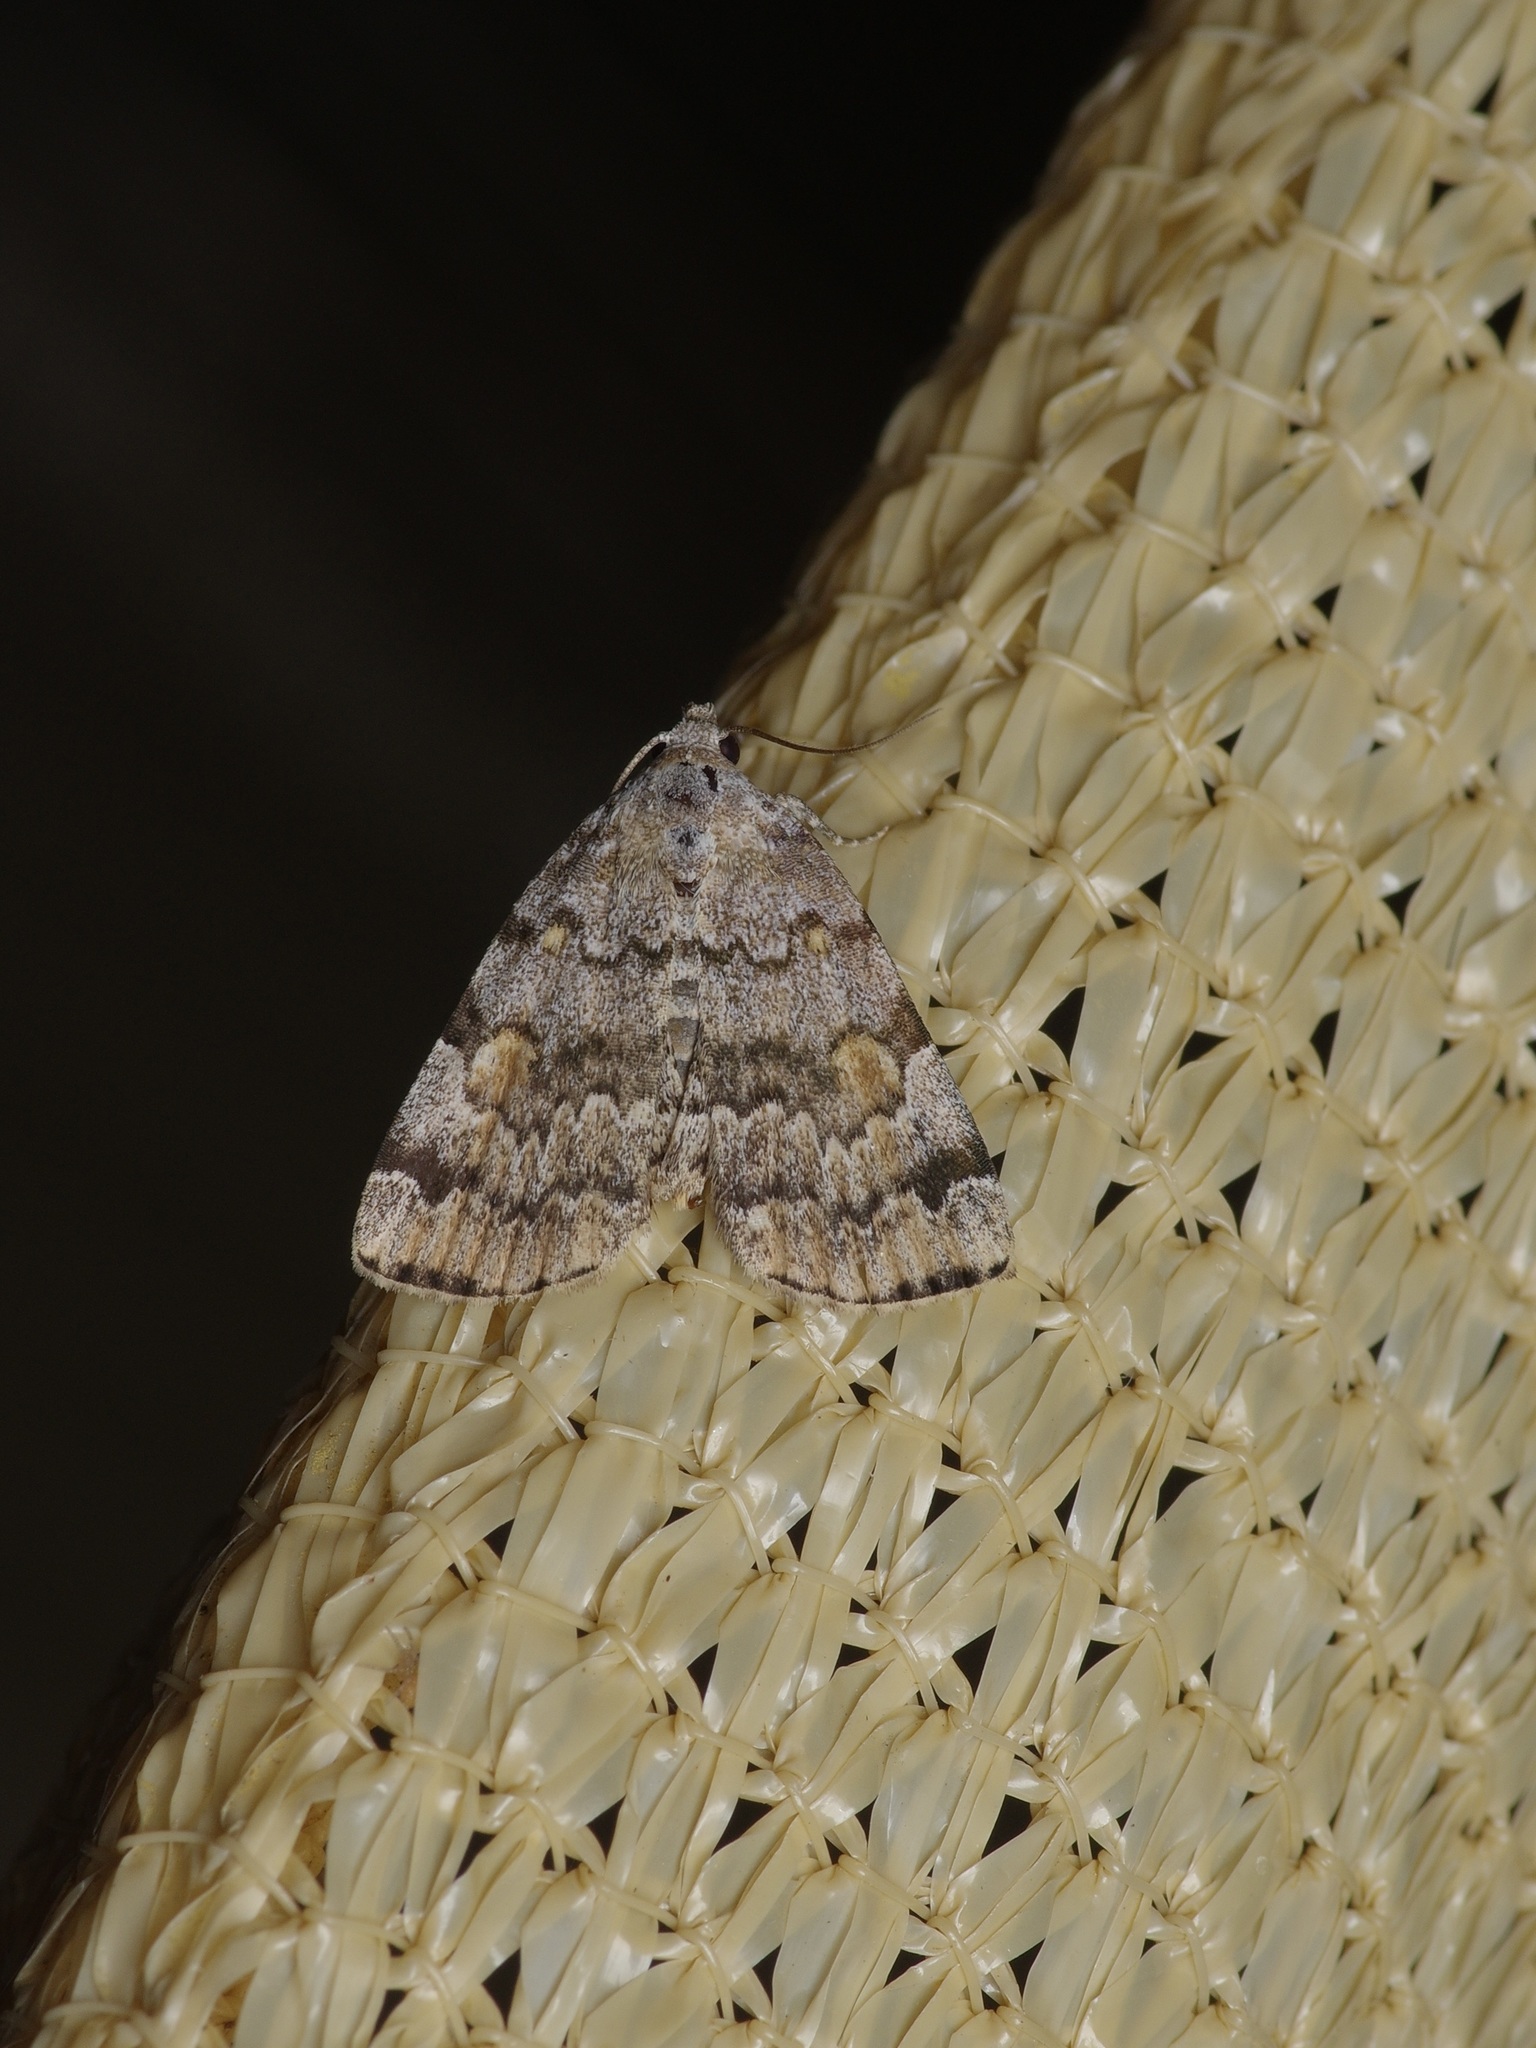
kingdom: Animalia
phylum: Arthropoda
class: Insecta
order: Lepidoptera
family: Erebidae
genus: Idia
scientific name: Idia americalis
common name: American idia moth
